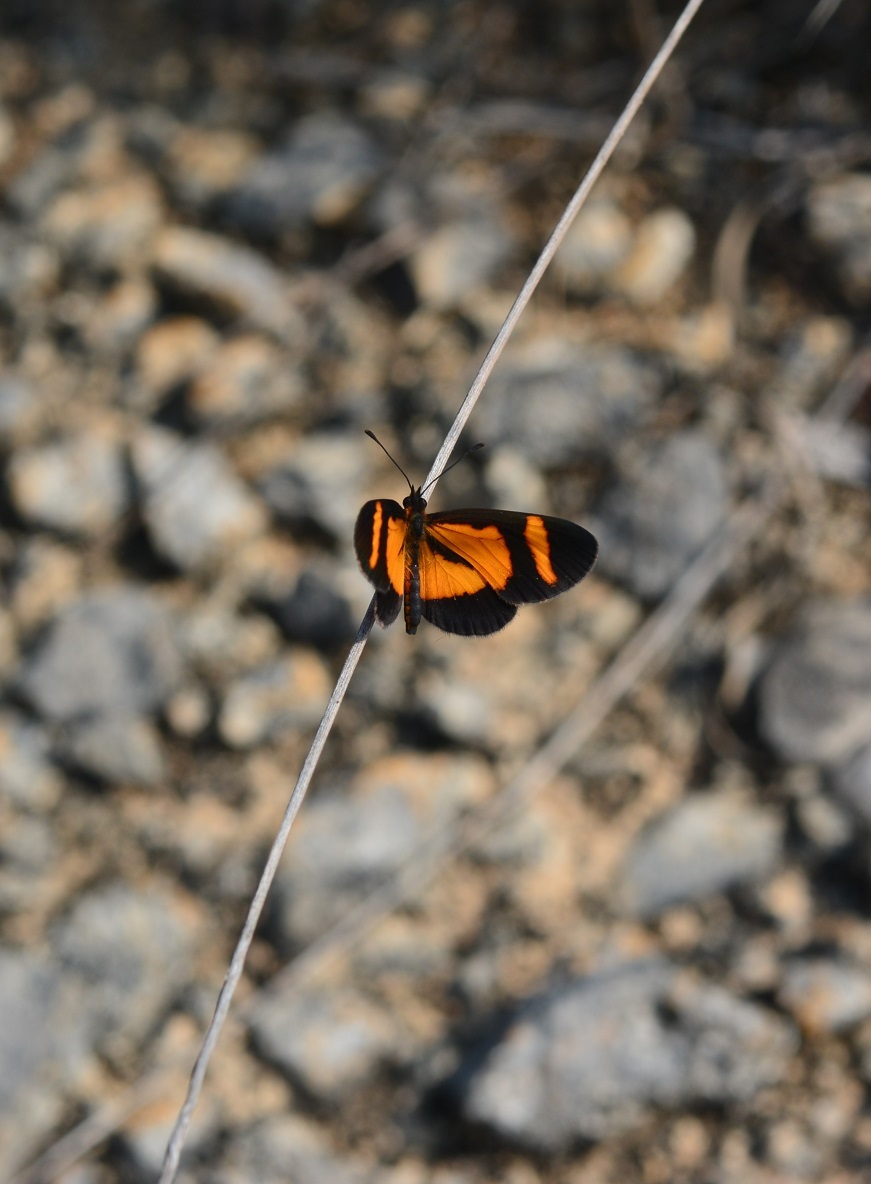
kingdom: Animalia
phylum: Arthropoda
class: Insecta
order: Lepidoptera
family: Nymphalidae
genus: Microtia
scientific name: Microtia elva
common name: Elf
